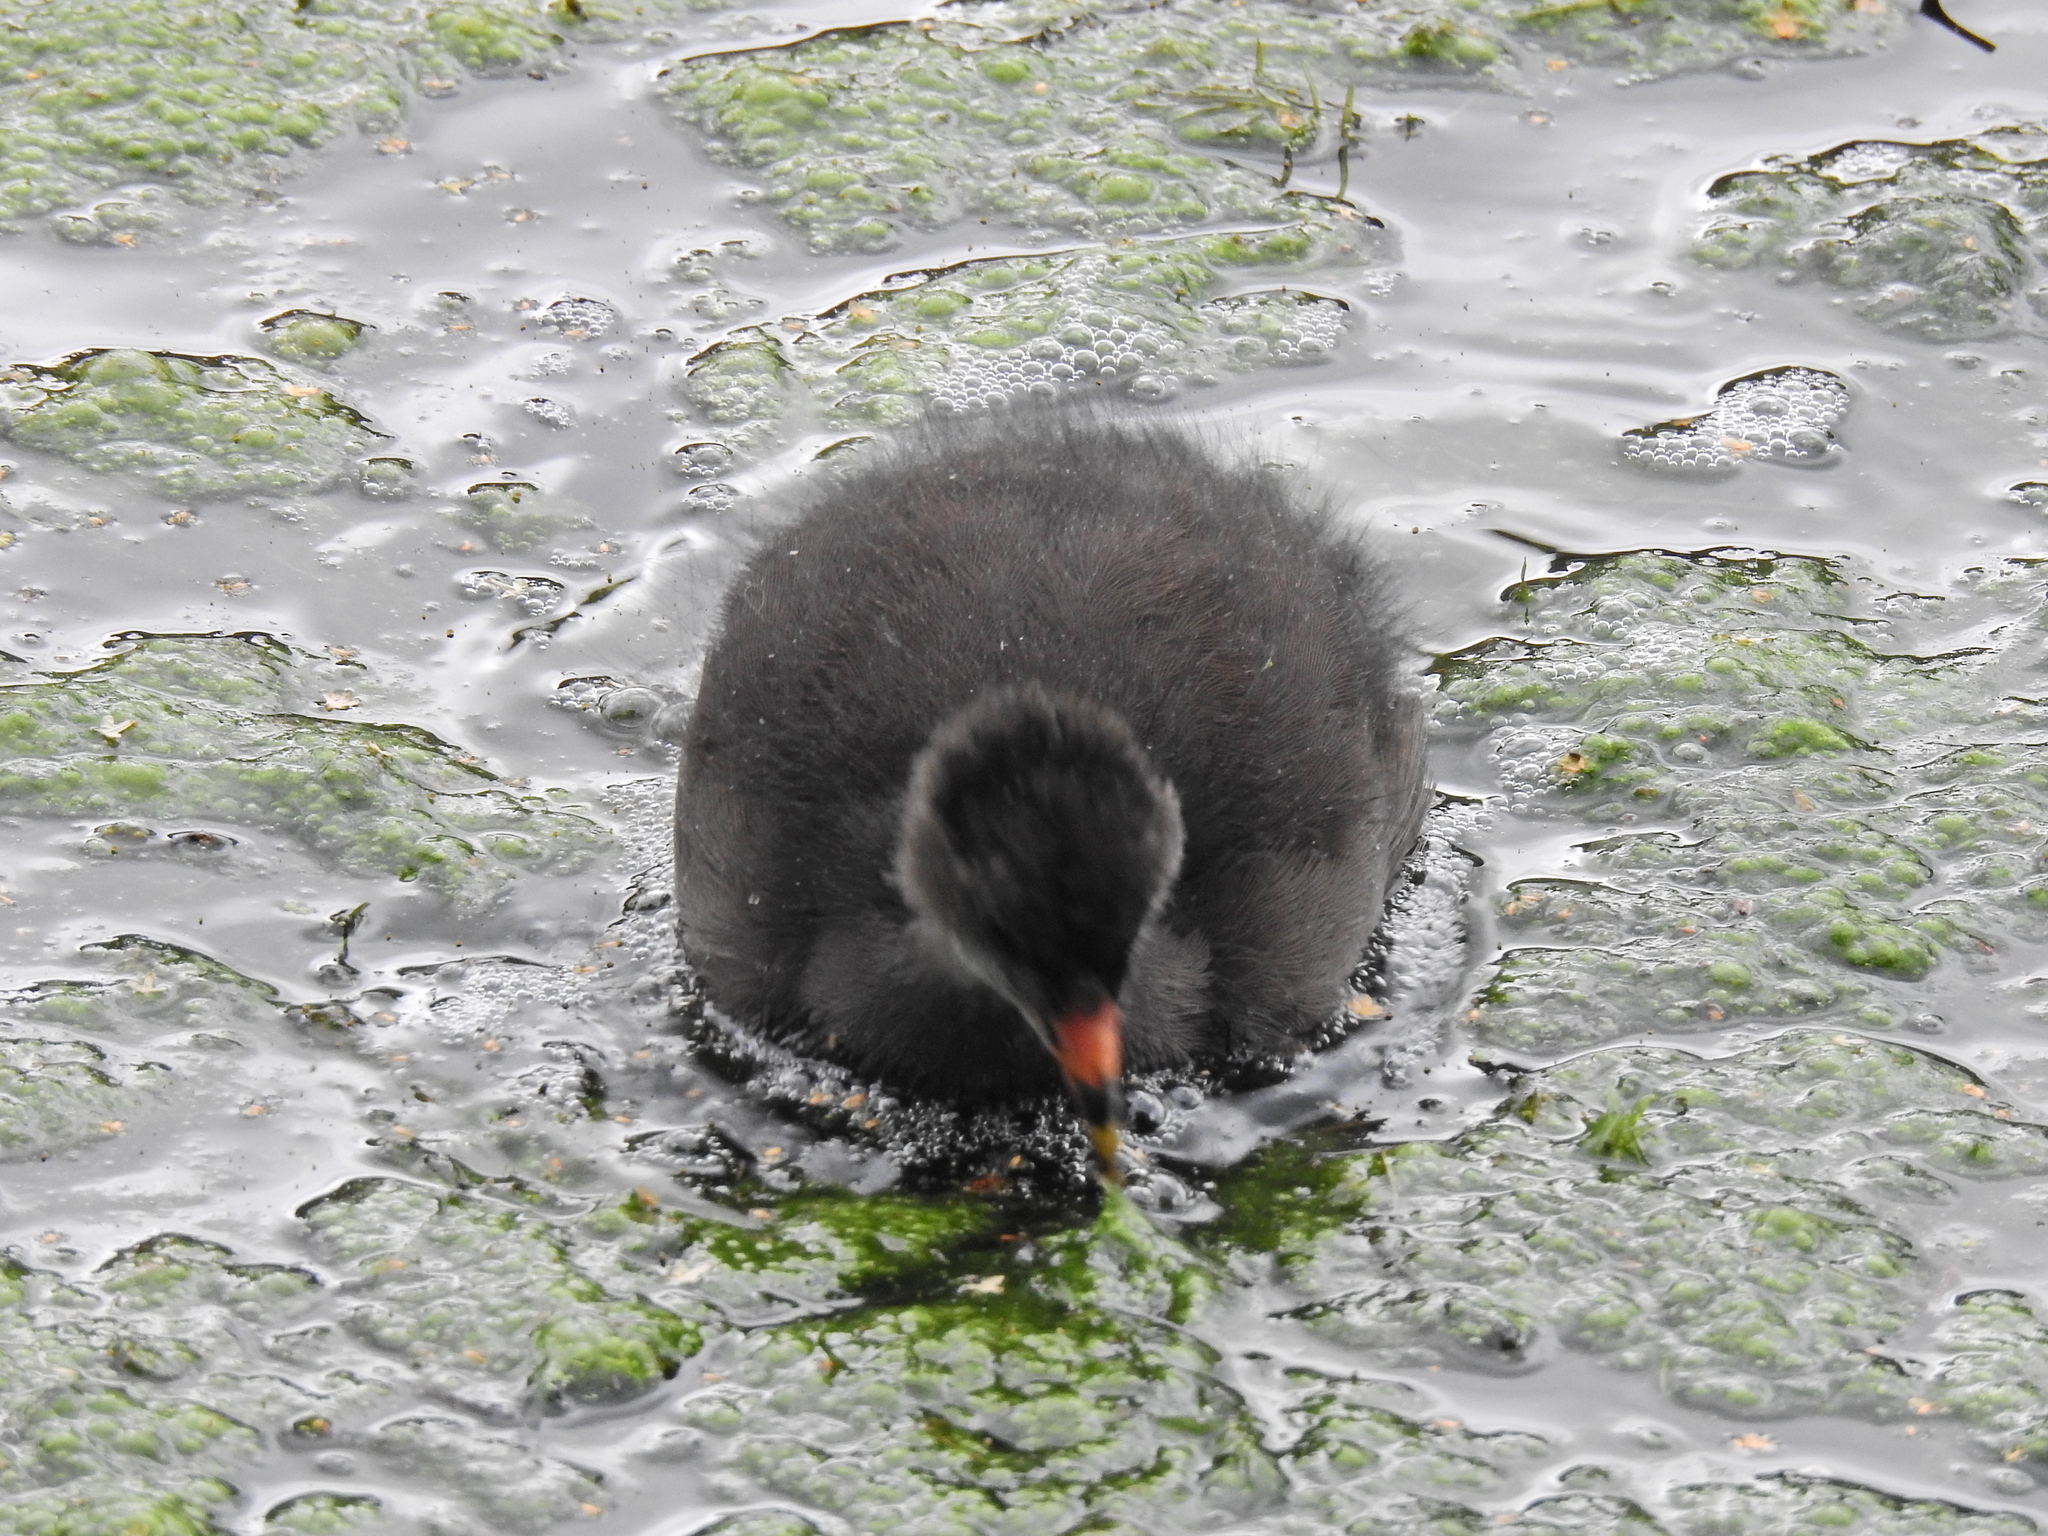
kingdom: Animalia
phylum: Chordata
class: Aves
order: Gruiformes
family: Rallidae
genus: Gallinula
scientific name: Gallinula chloropus
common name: Common moorhen
